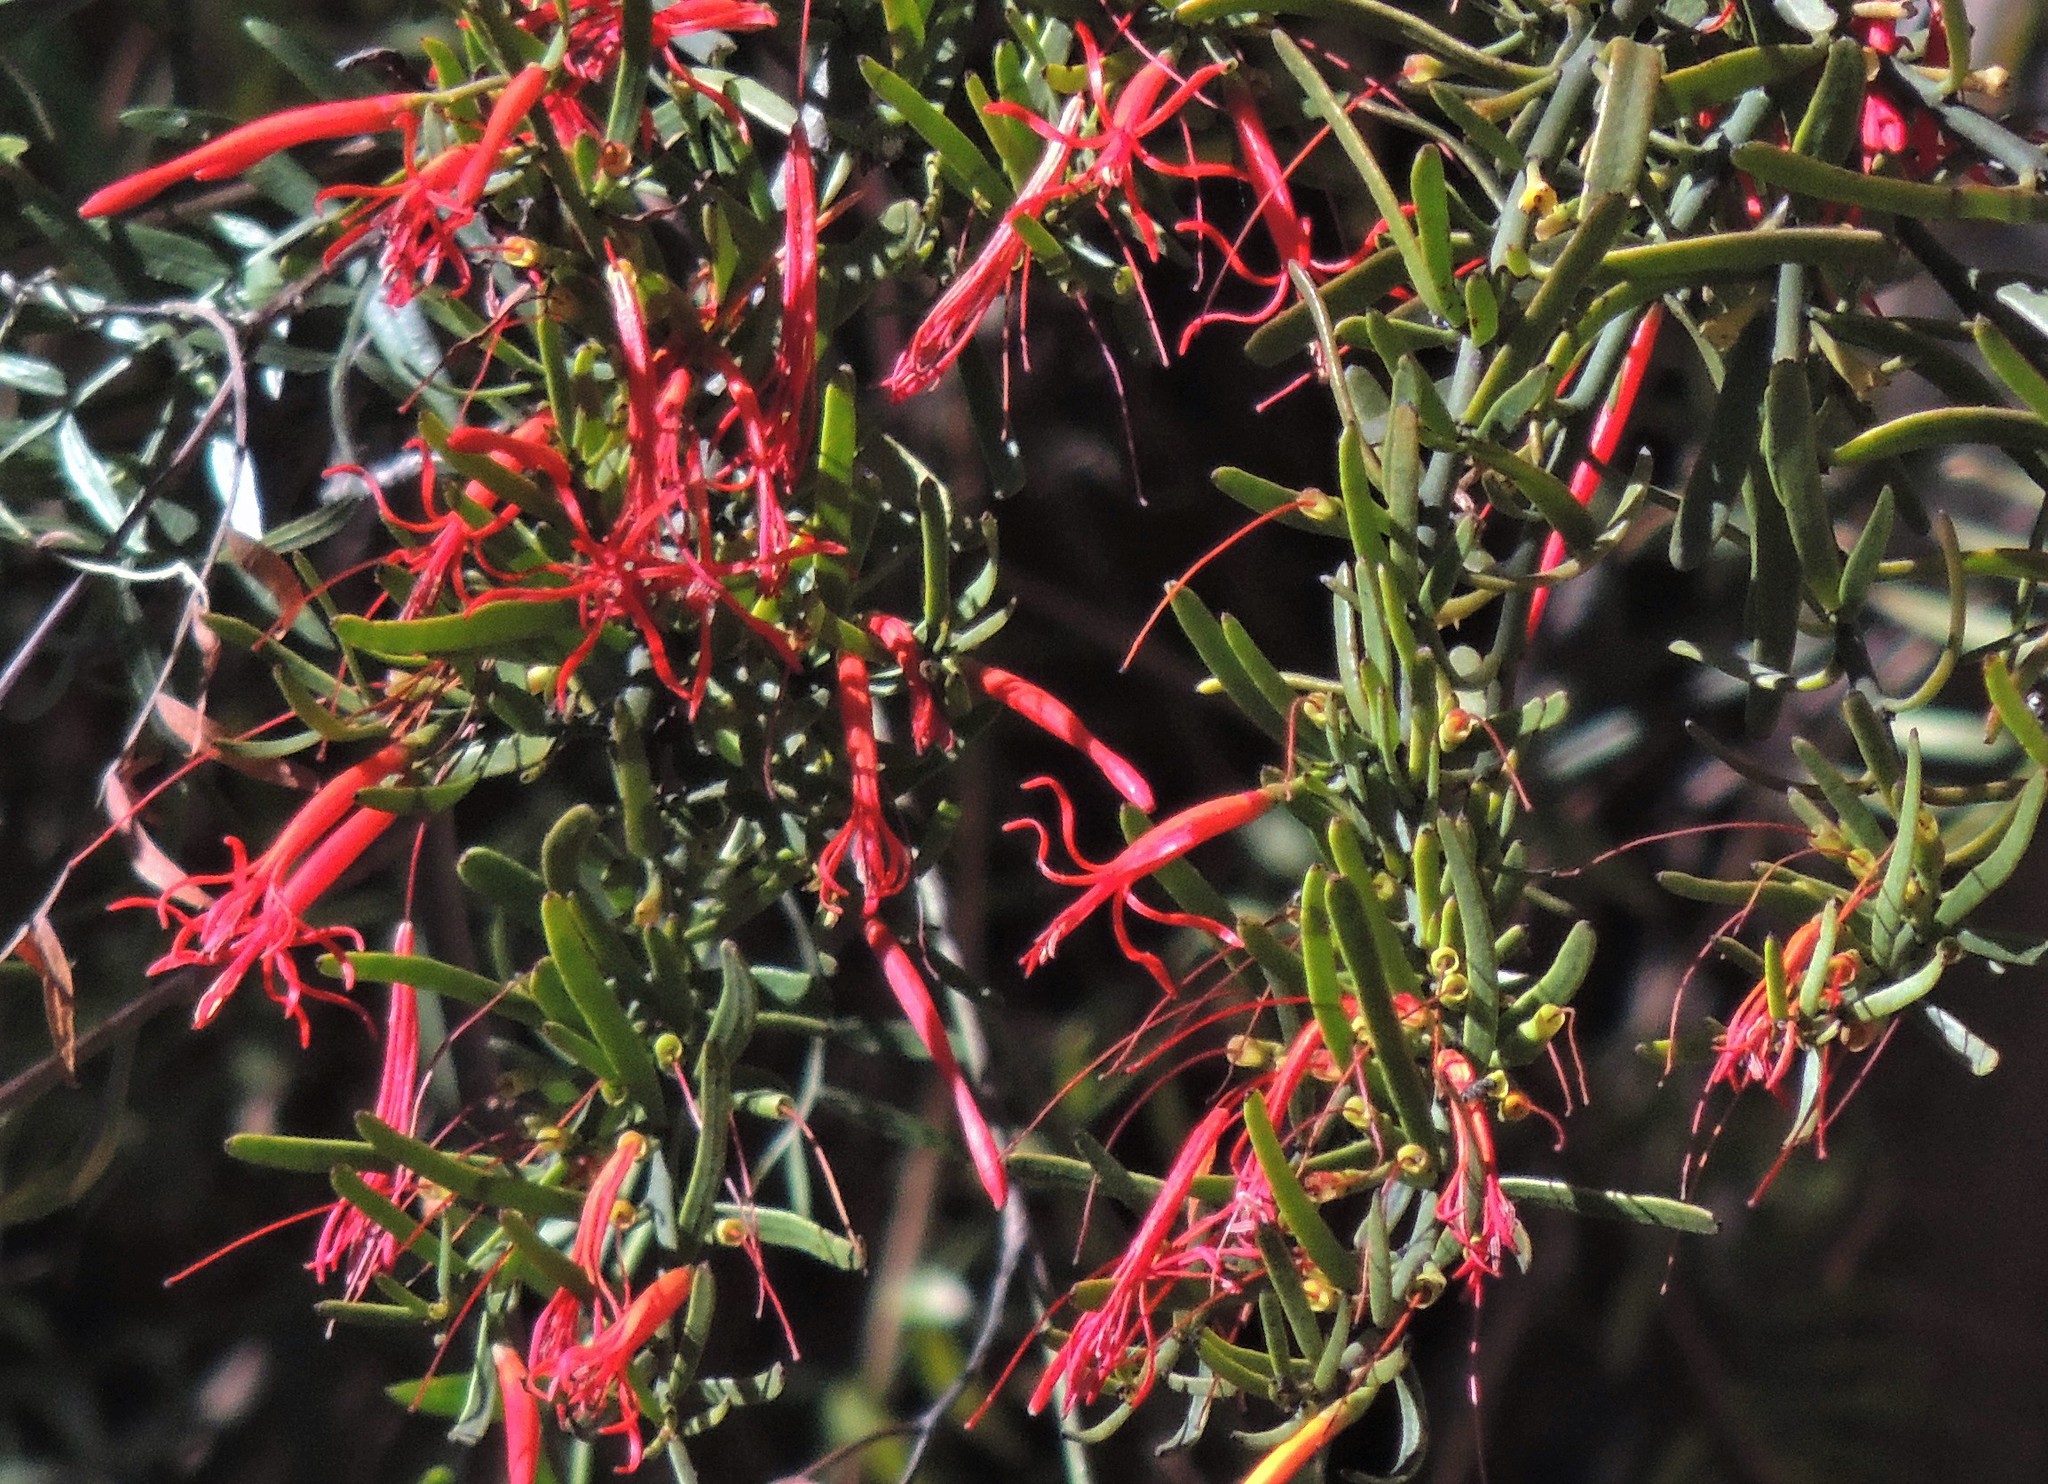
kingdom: Plantae
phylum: Tracheophyta
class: Magnoliopsida
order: Santalales
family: Loranthaceae
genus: Ligaria
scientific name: Ligaria cuneifolia
